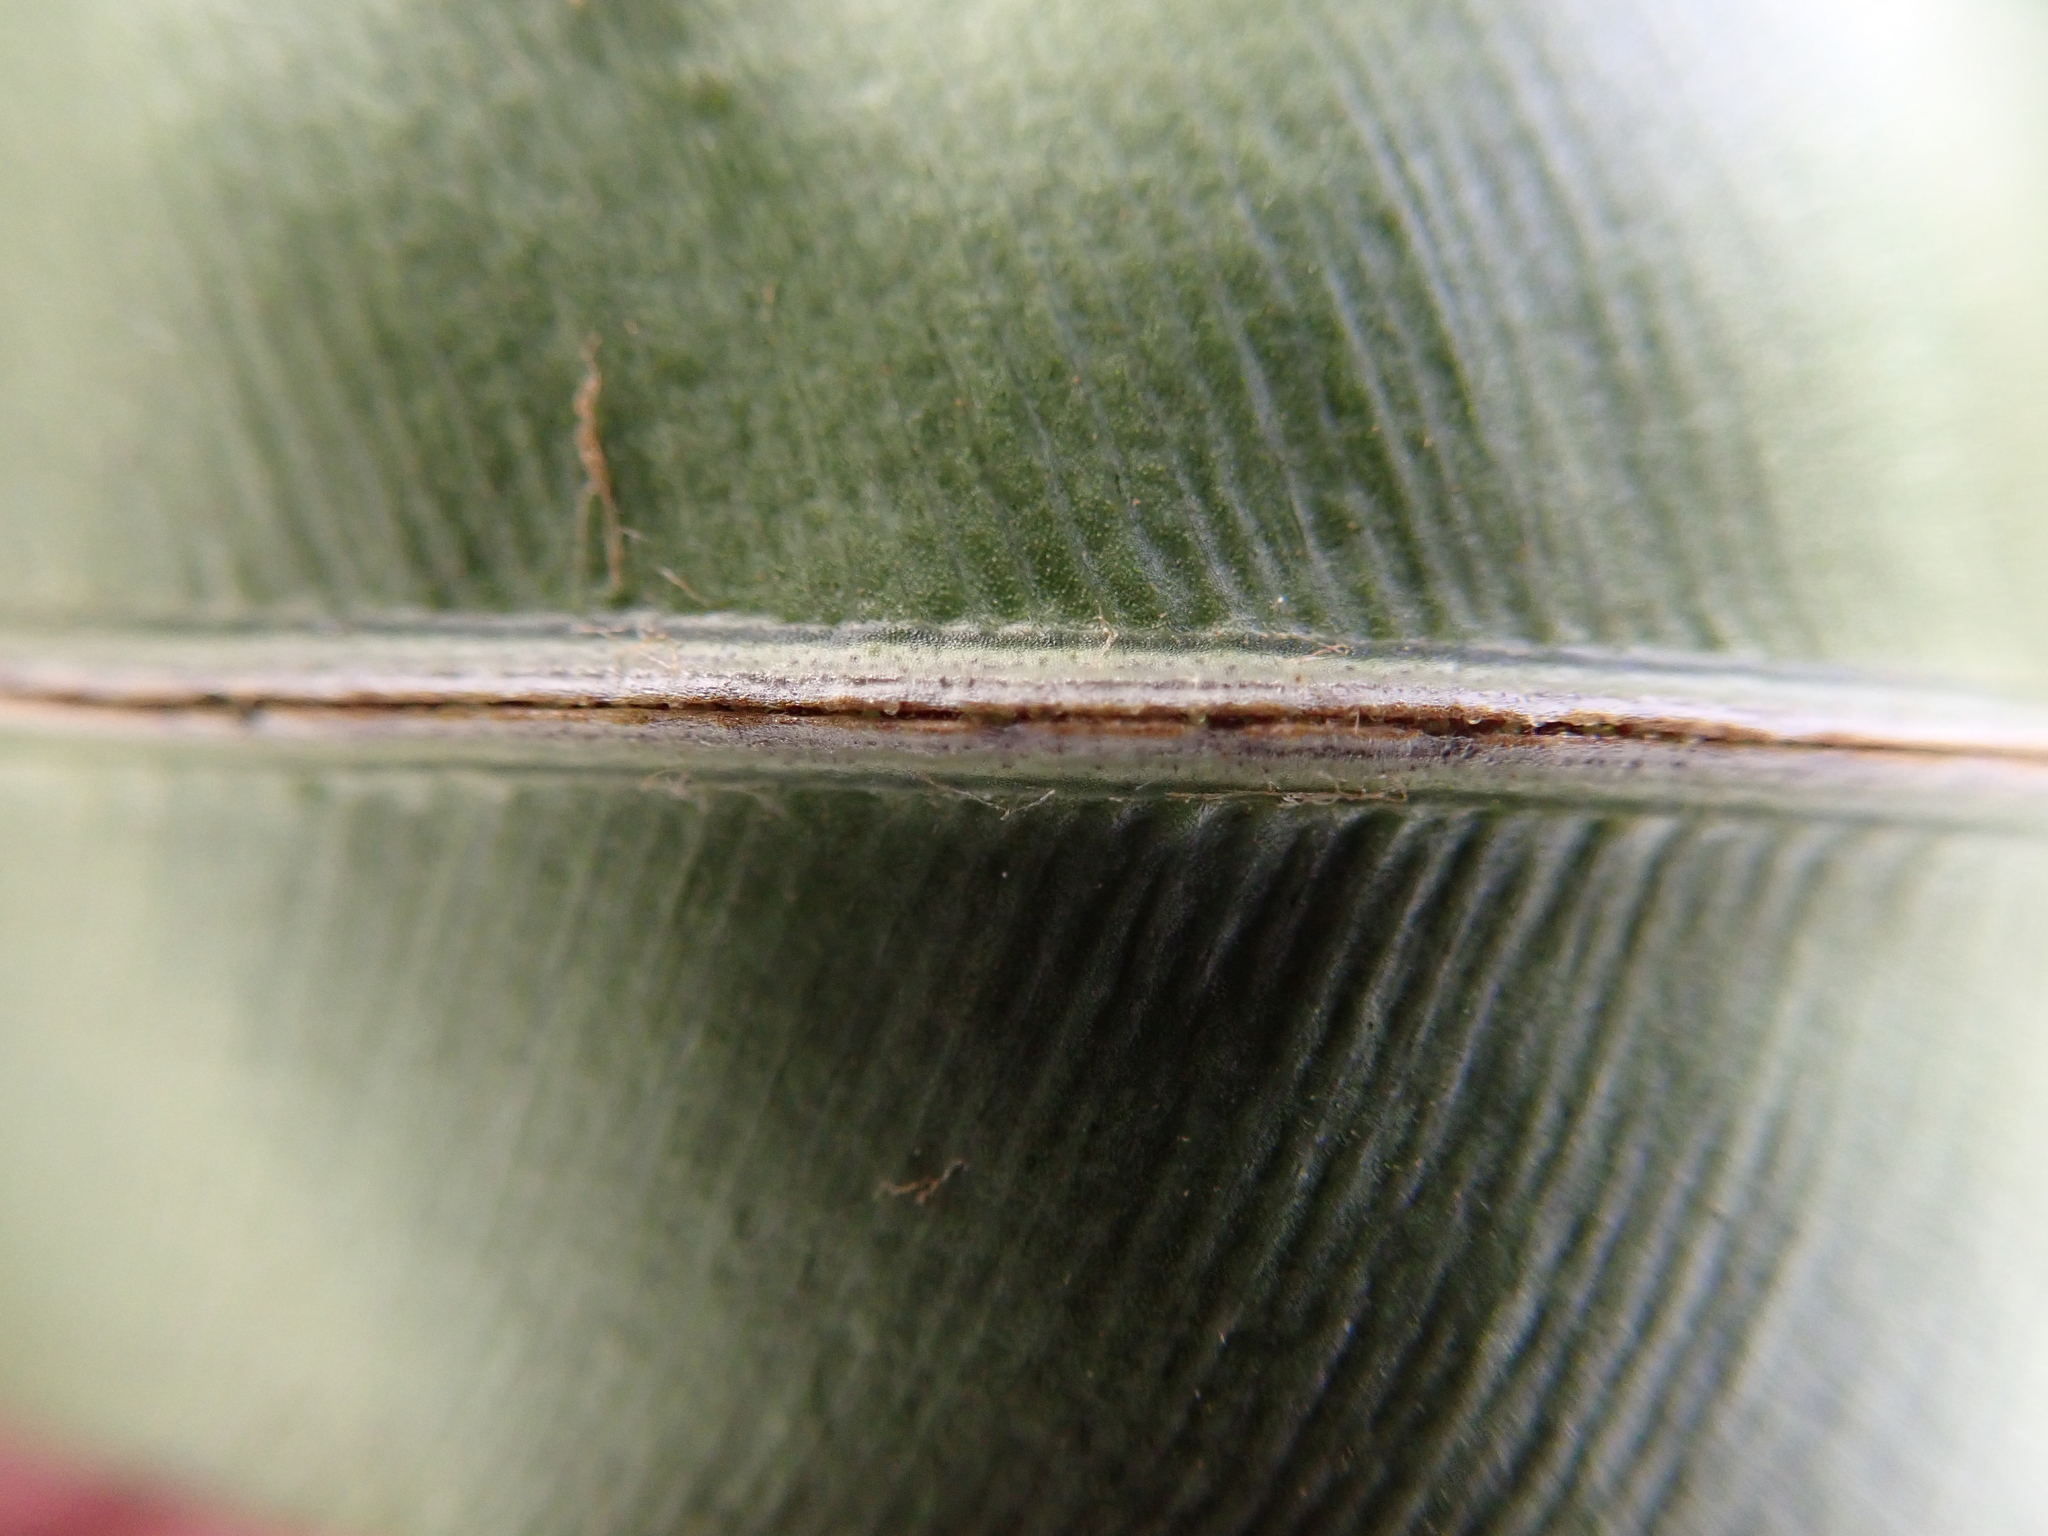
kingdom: Plantae
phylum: Tracheophyta
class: Polypodiopsida
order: Polypodiales
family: Blechnaceae
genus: Blechnopsis
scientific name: Blechnopsis orientalis
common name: Oriental blechnum
